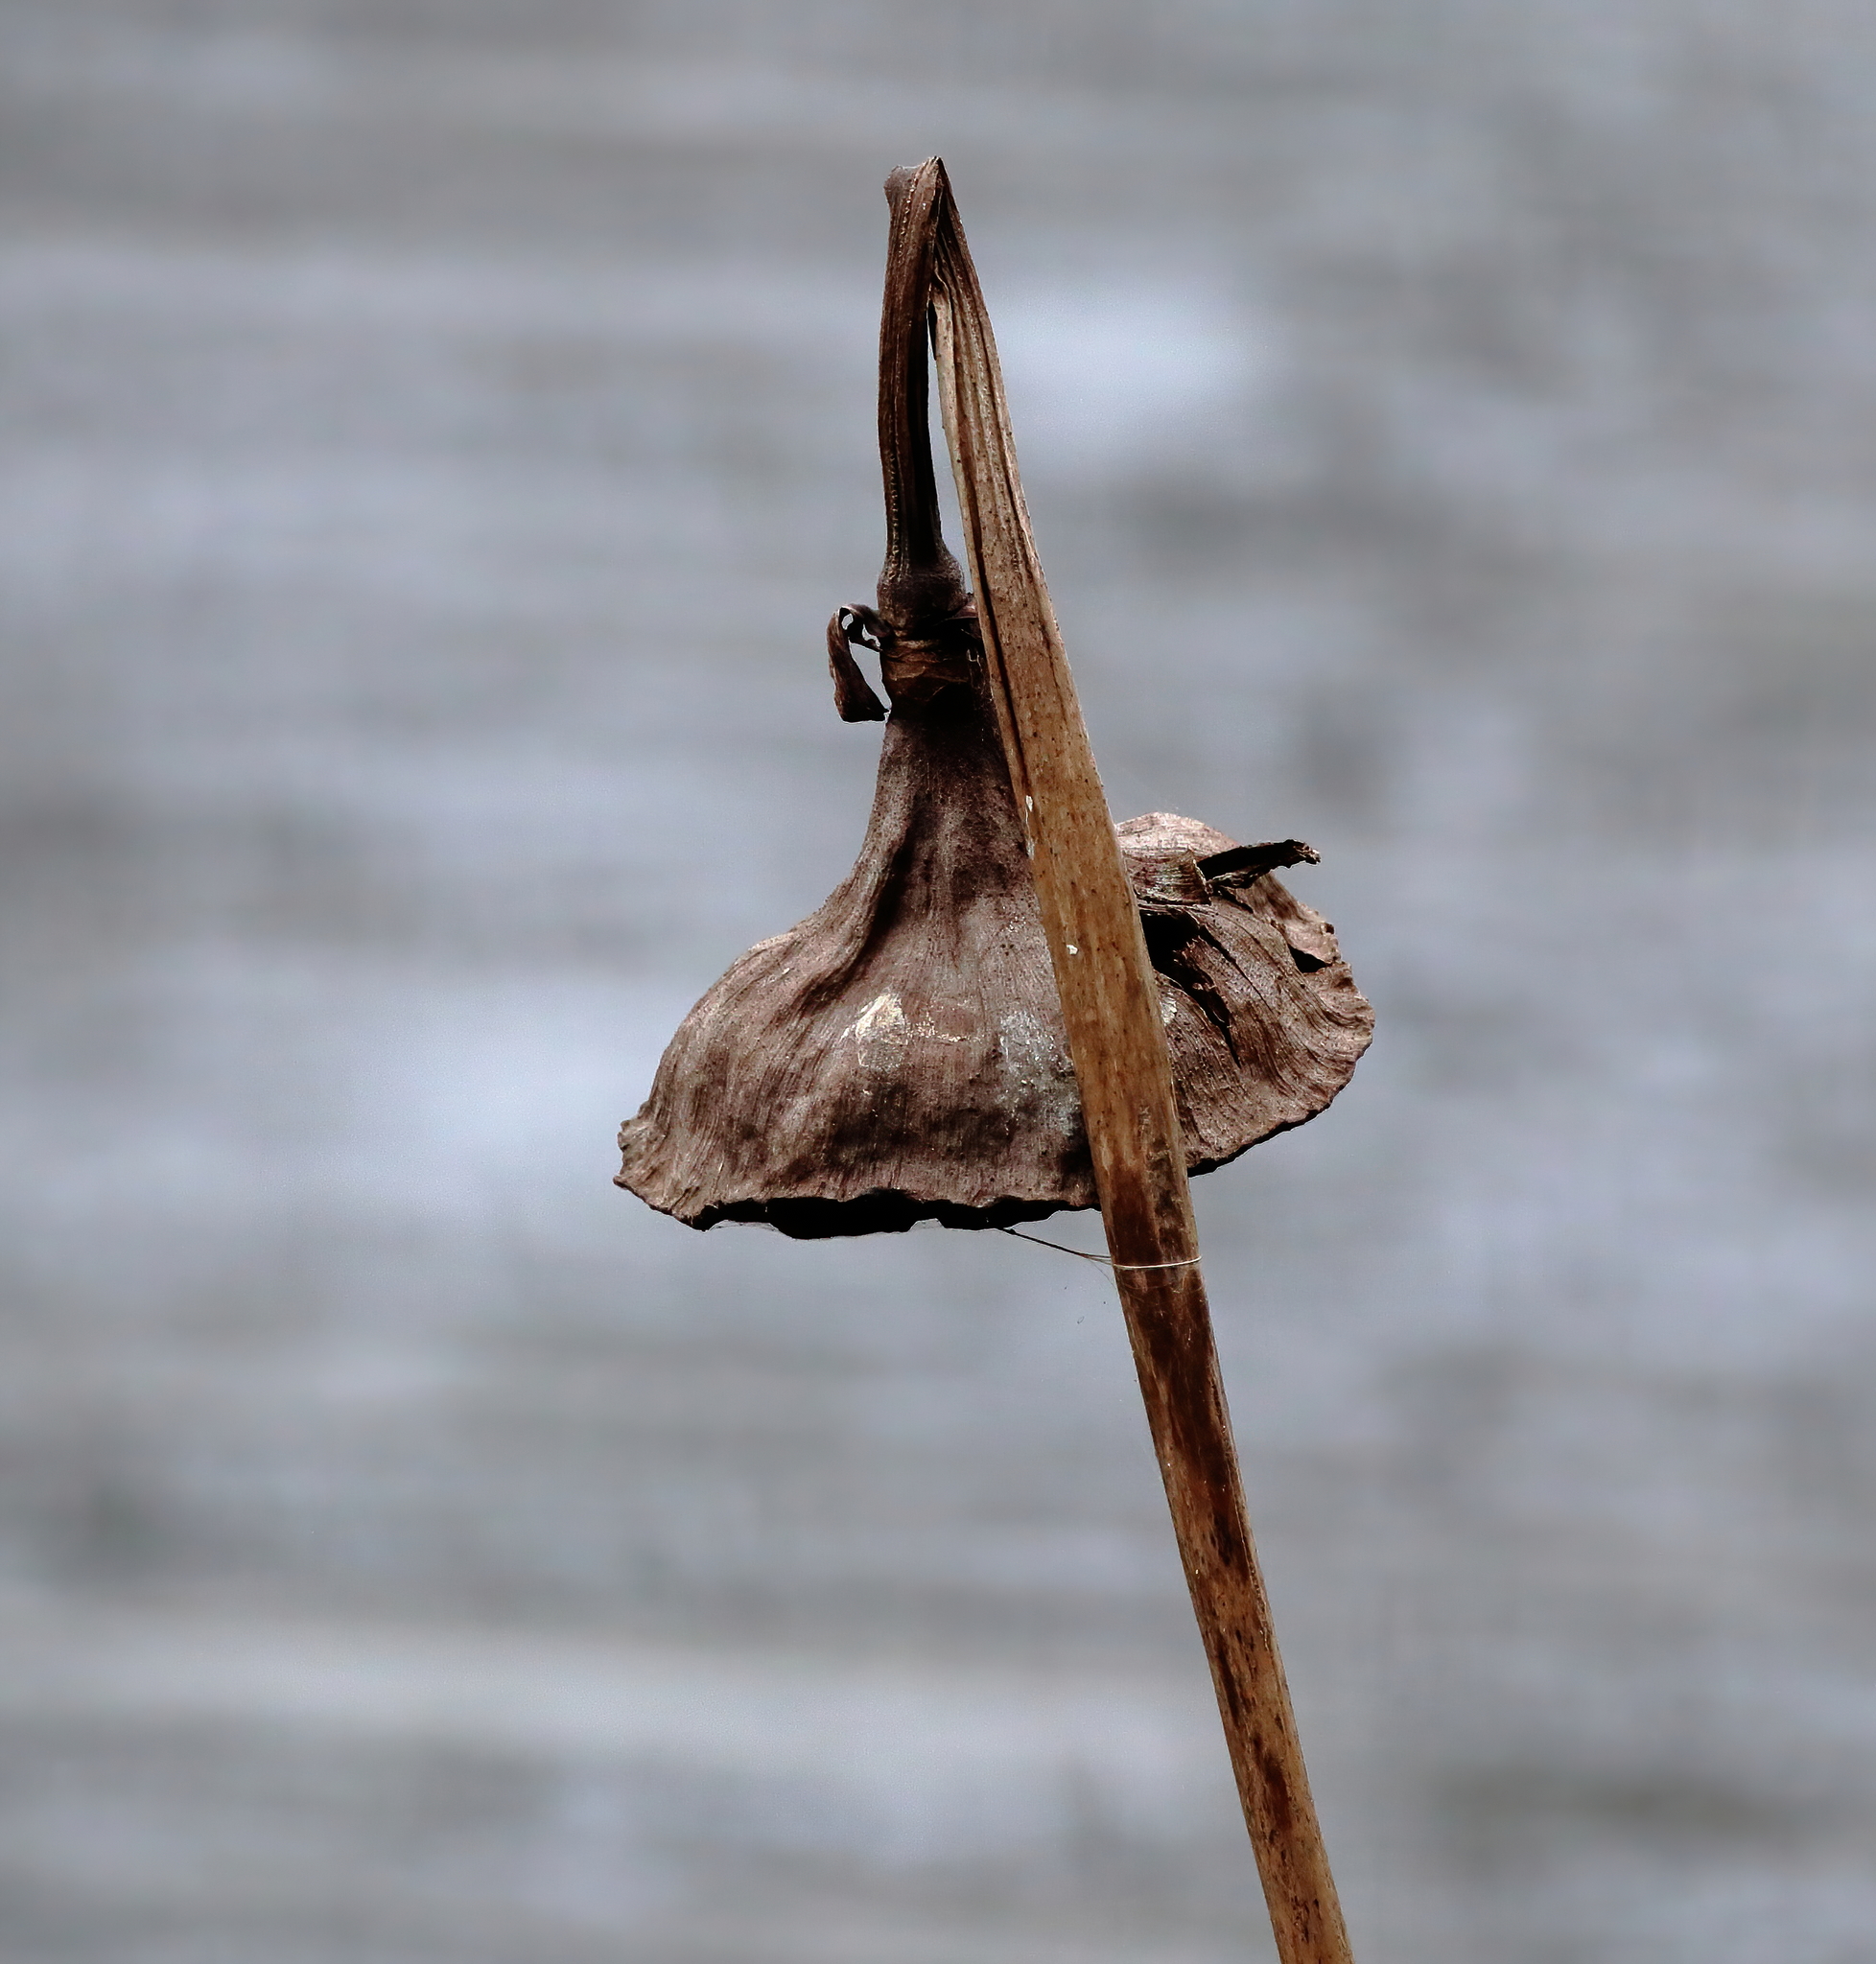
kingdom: Plantae
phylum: Tracheophyta
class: Magnoliopsida
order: Proteales
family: Nelumbonaceae
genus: Nelumbo
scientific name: Nelumbo lutea
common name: American lotus
